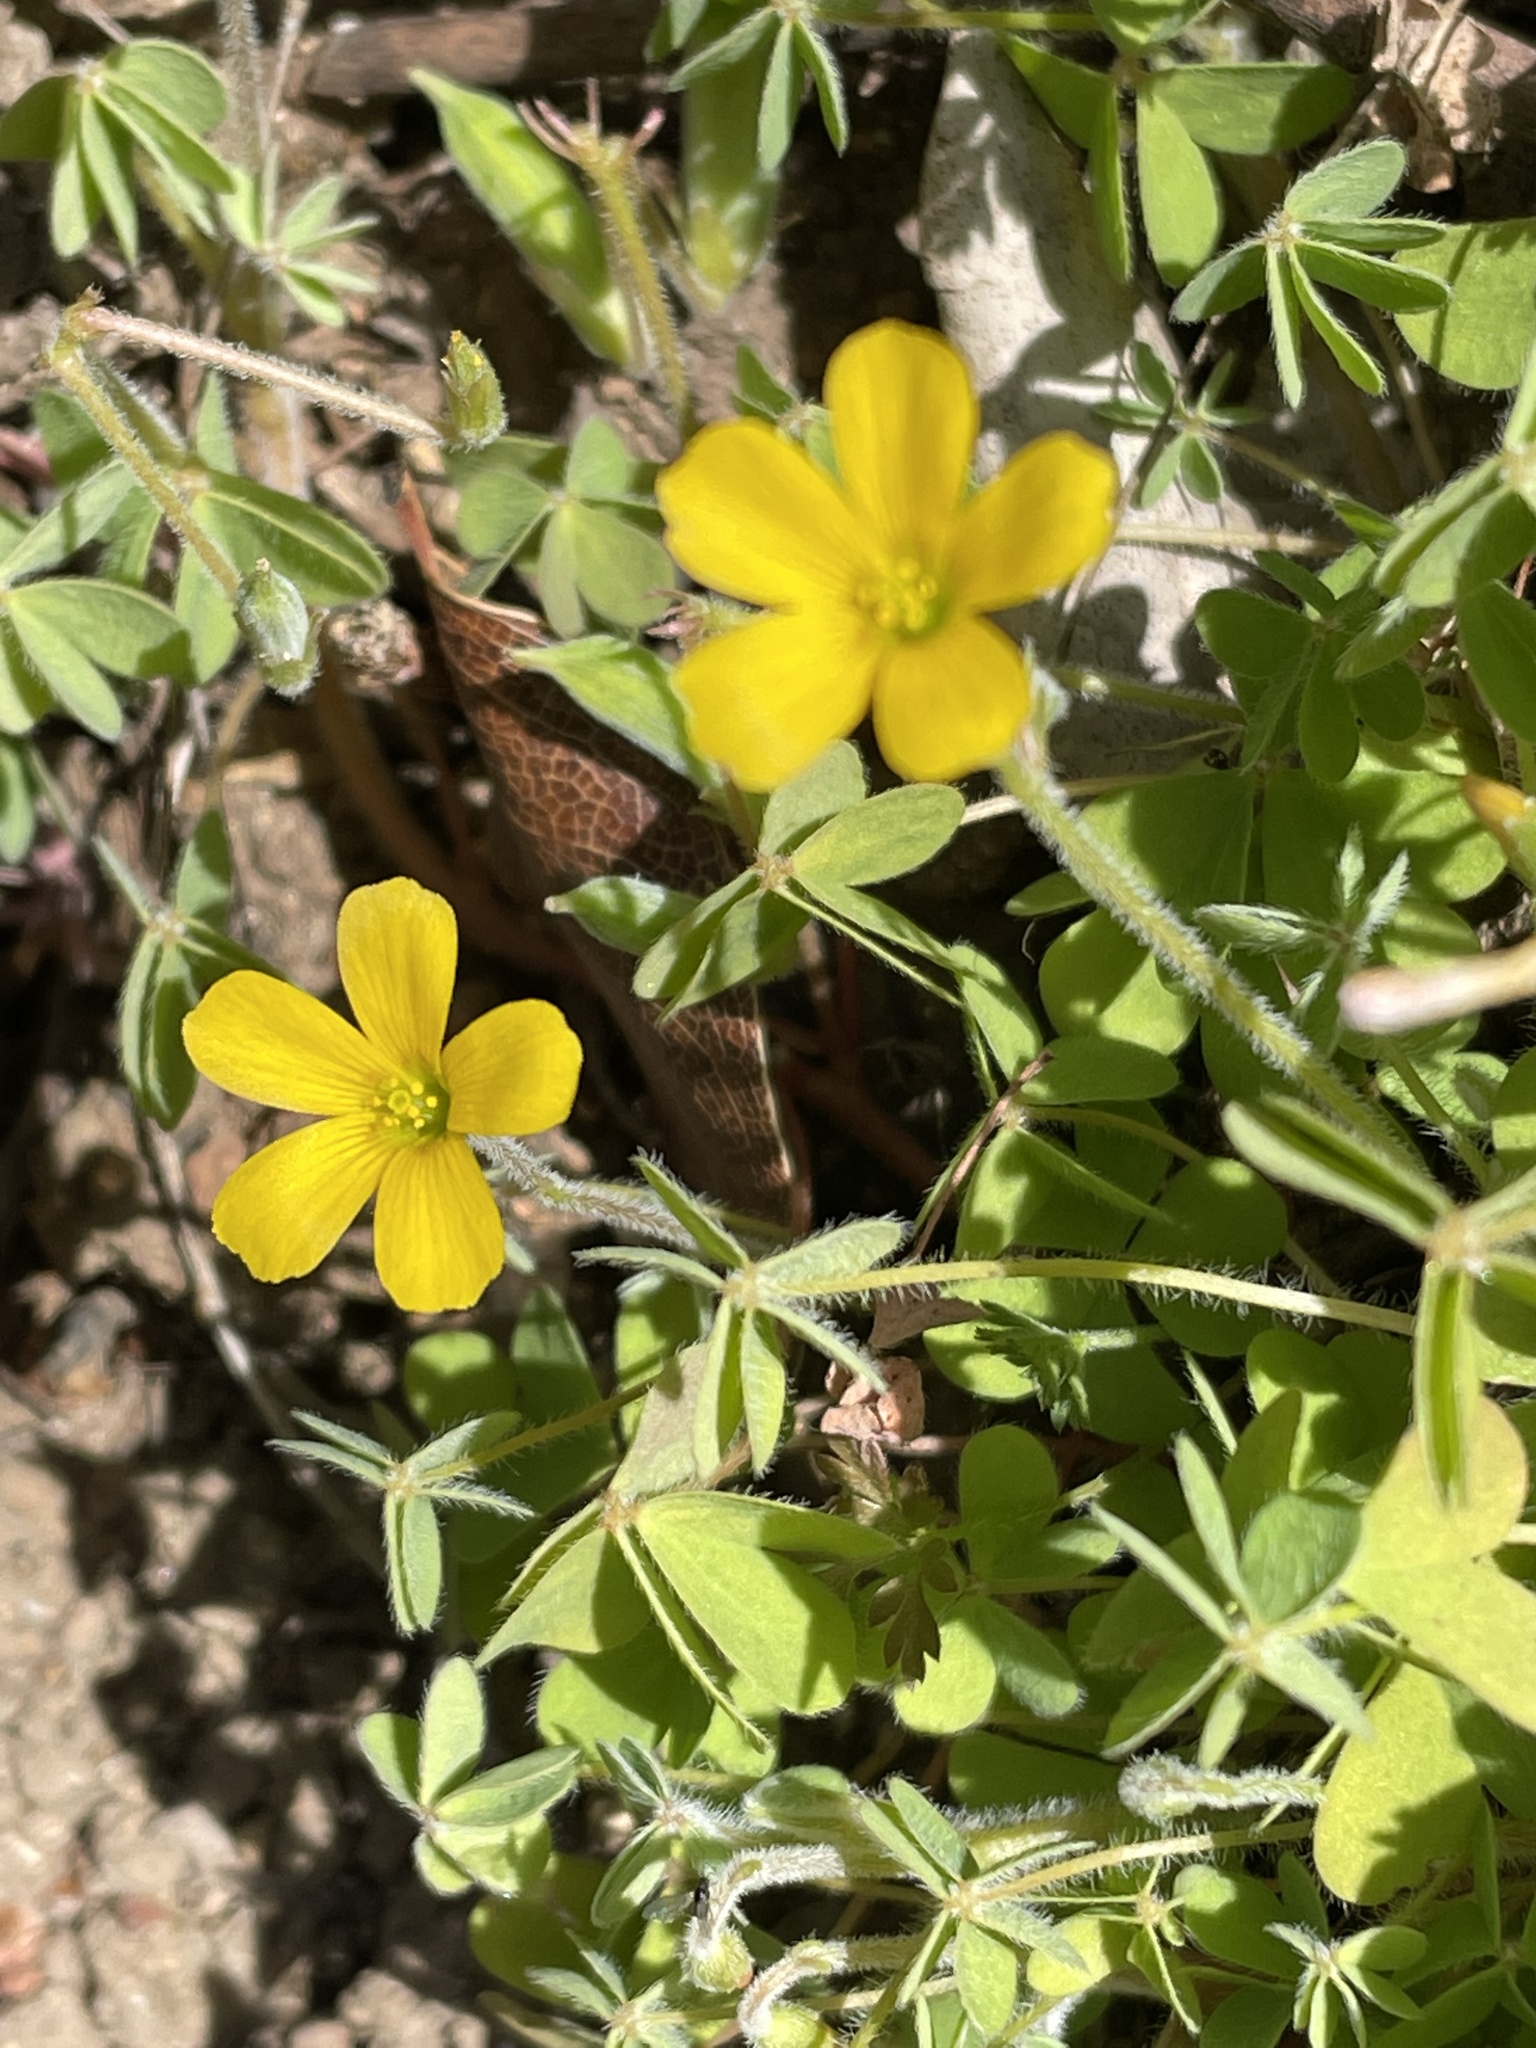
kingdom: Plantae
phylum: Tracheophyta
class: Magnoliopsida
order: Oxalidales
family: Oxalidaceae
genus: Oxalis
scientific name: Oxalis pilosa
